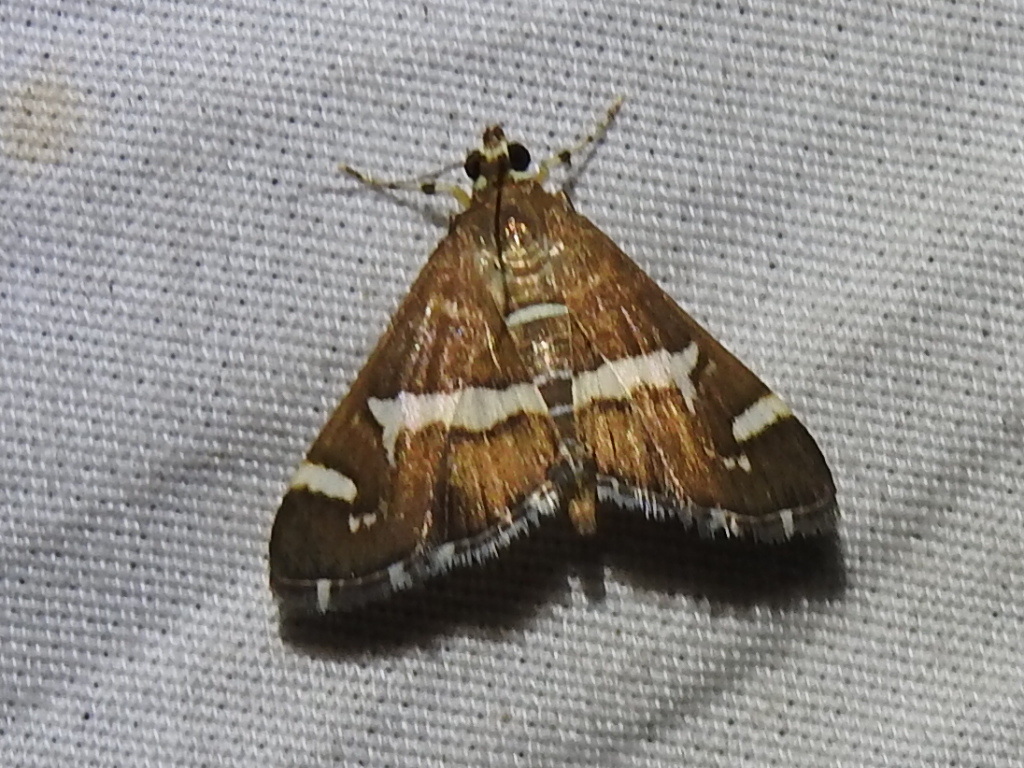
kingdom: Animalia
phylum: Arthropoda
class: Insecta
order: Lepidoptera
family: Crambidae
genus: Spoladea
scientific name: Spoladea recurvalis
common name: Beet webworm moth
